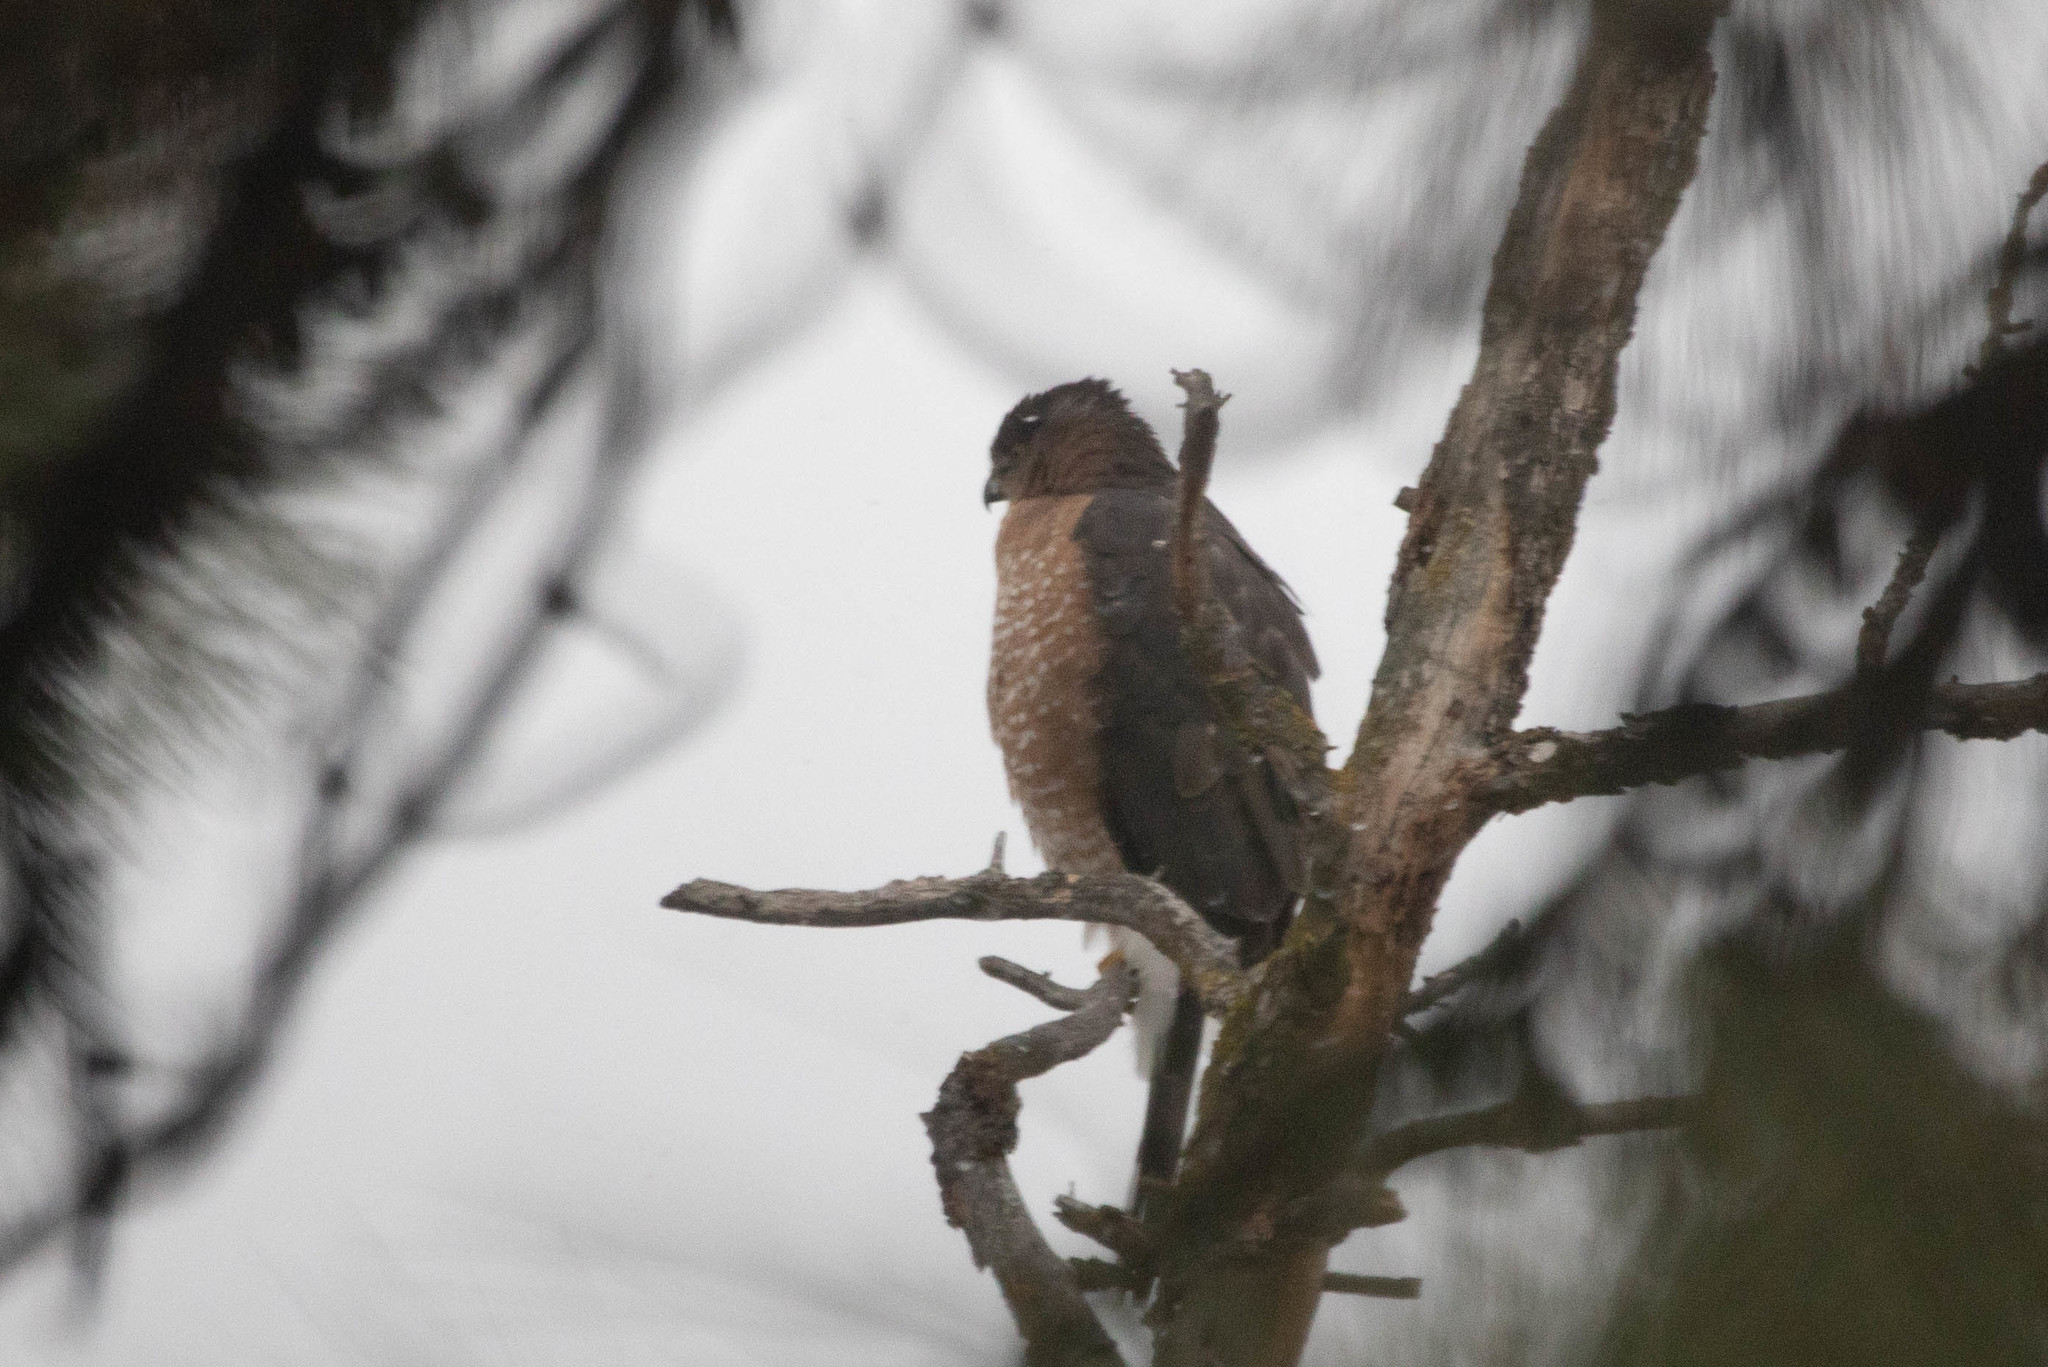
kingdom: Animalia
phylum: Chordata
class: Aves
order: Accipitriformes
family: Accipitridae
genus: Accipiter
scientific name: Accipiter cooperii
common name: Cooper's hawk
